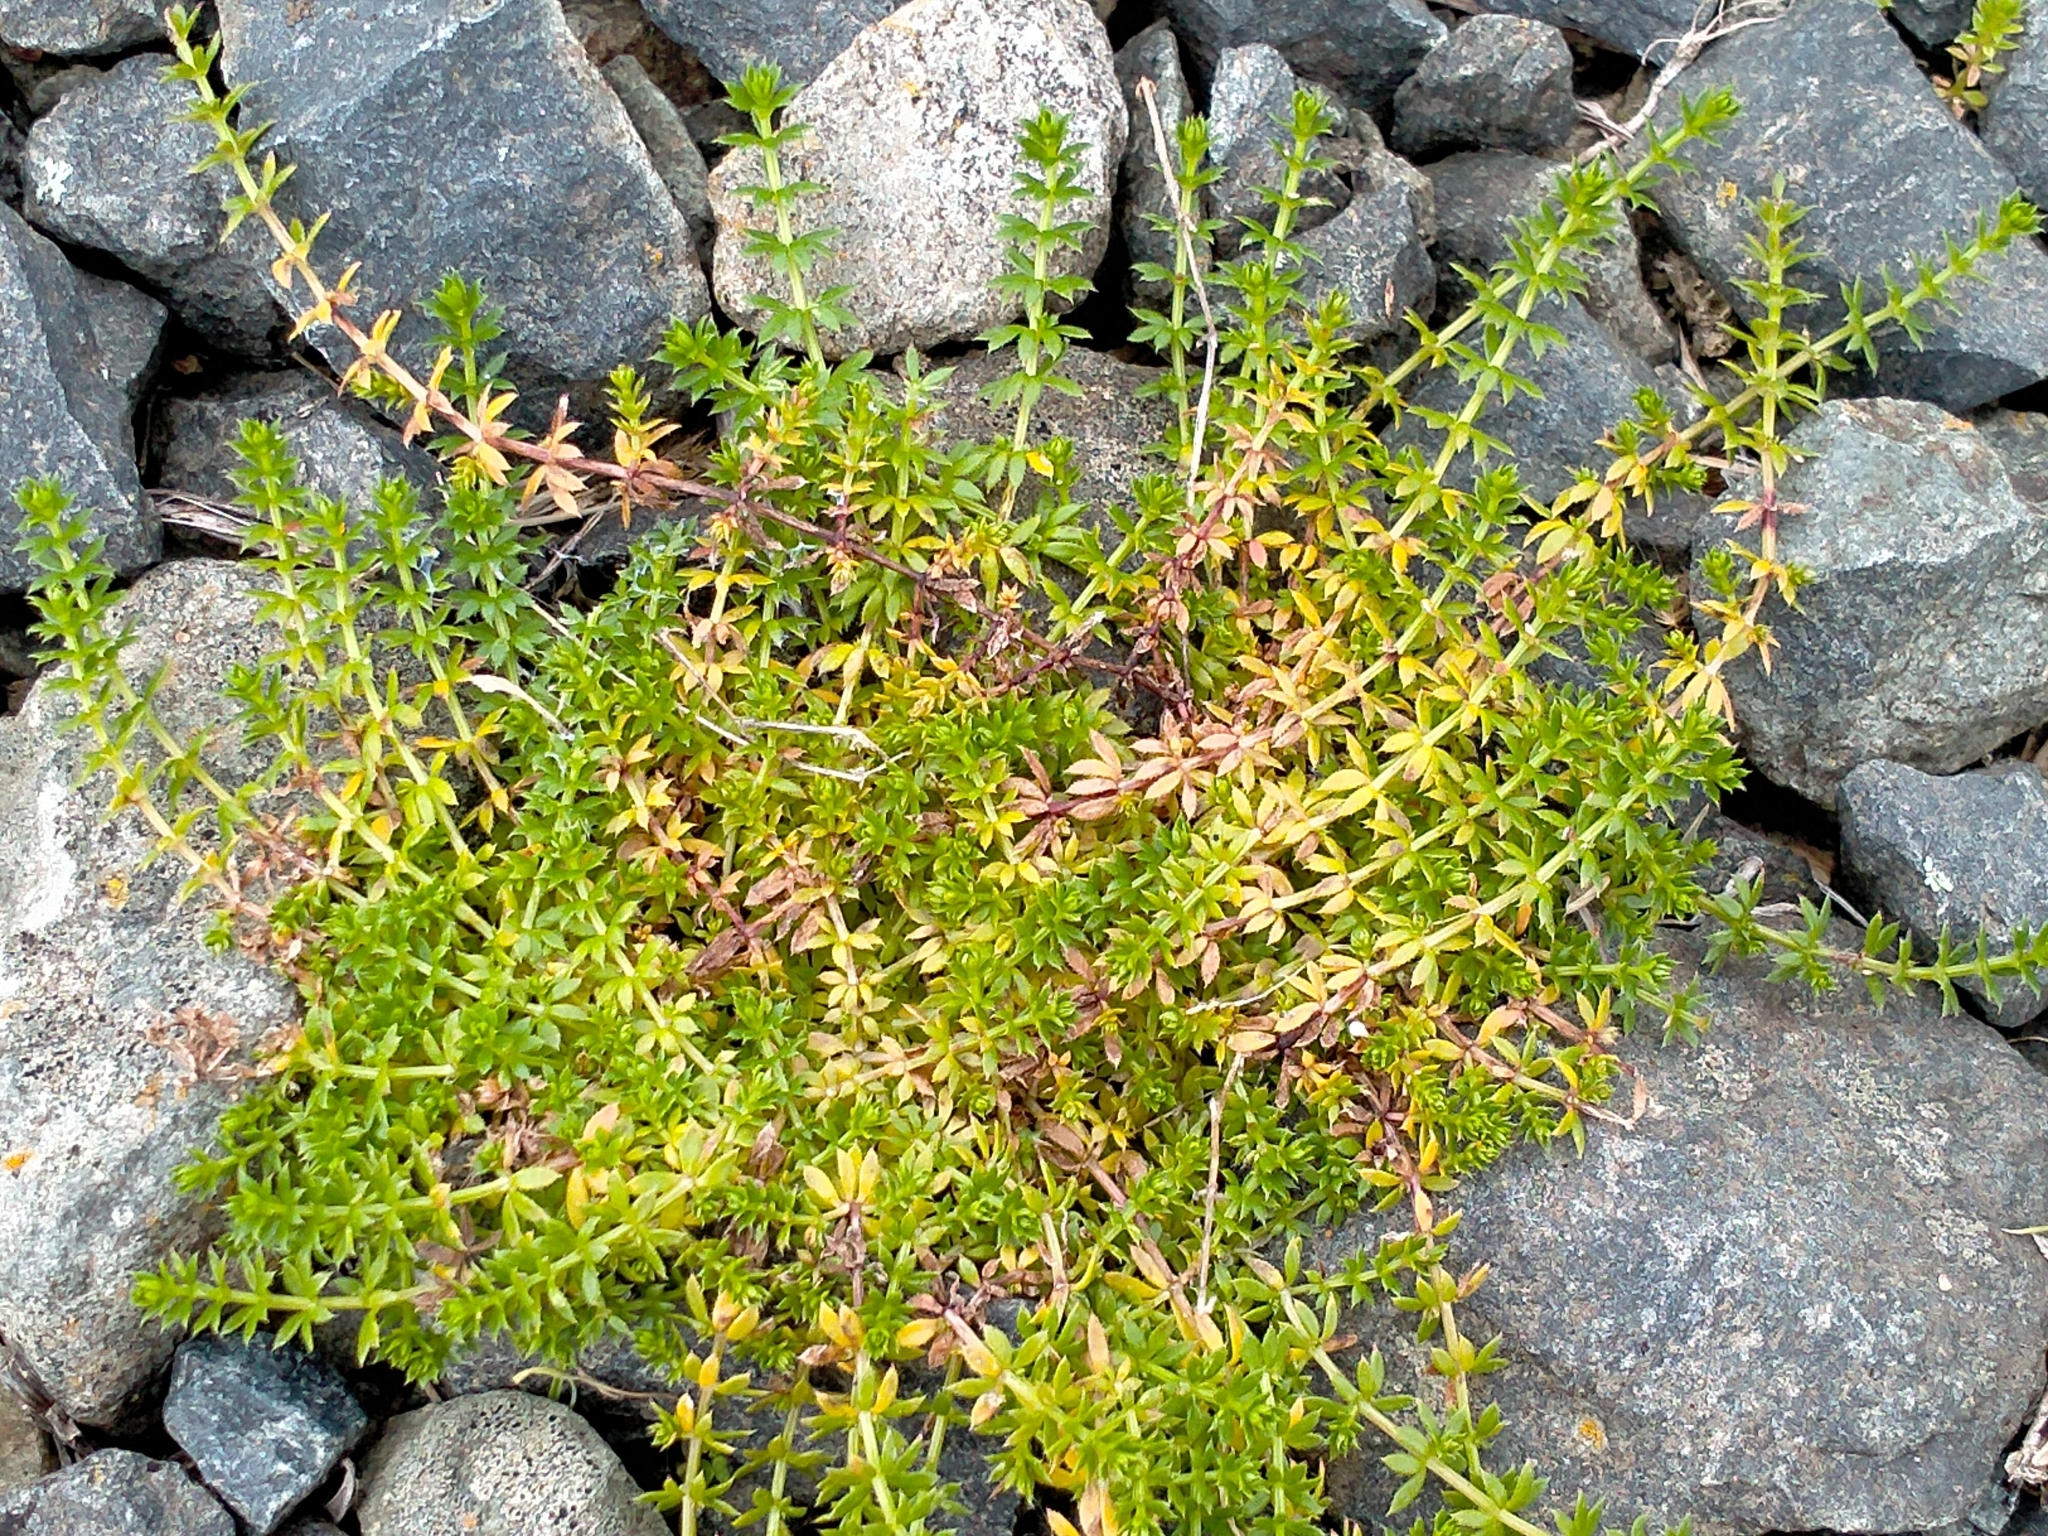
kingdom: Plantae
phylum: Tracheophyta
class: Magnoliopsida
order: Gentianales
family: Rubiaceae
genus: Sherardia
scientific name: Sherardia arvensis
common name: Field madder
